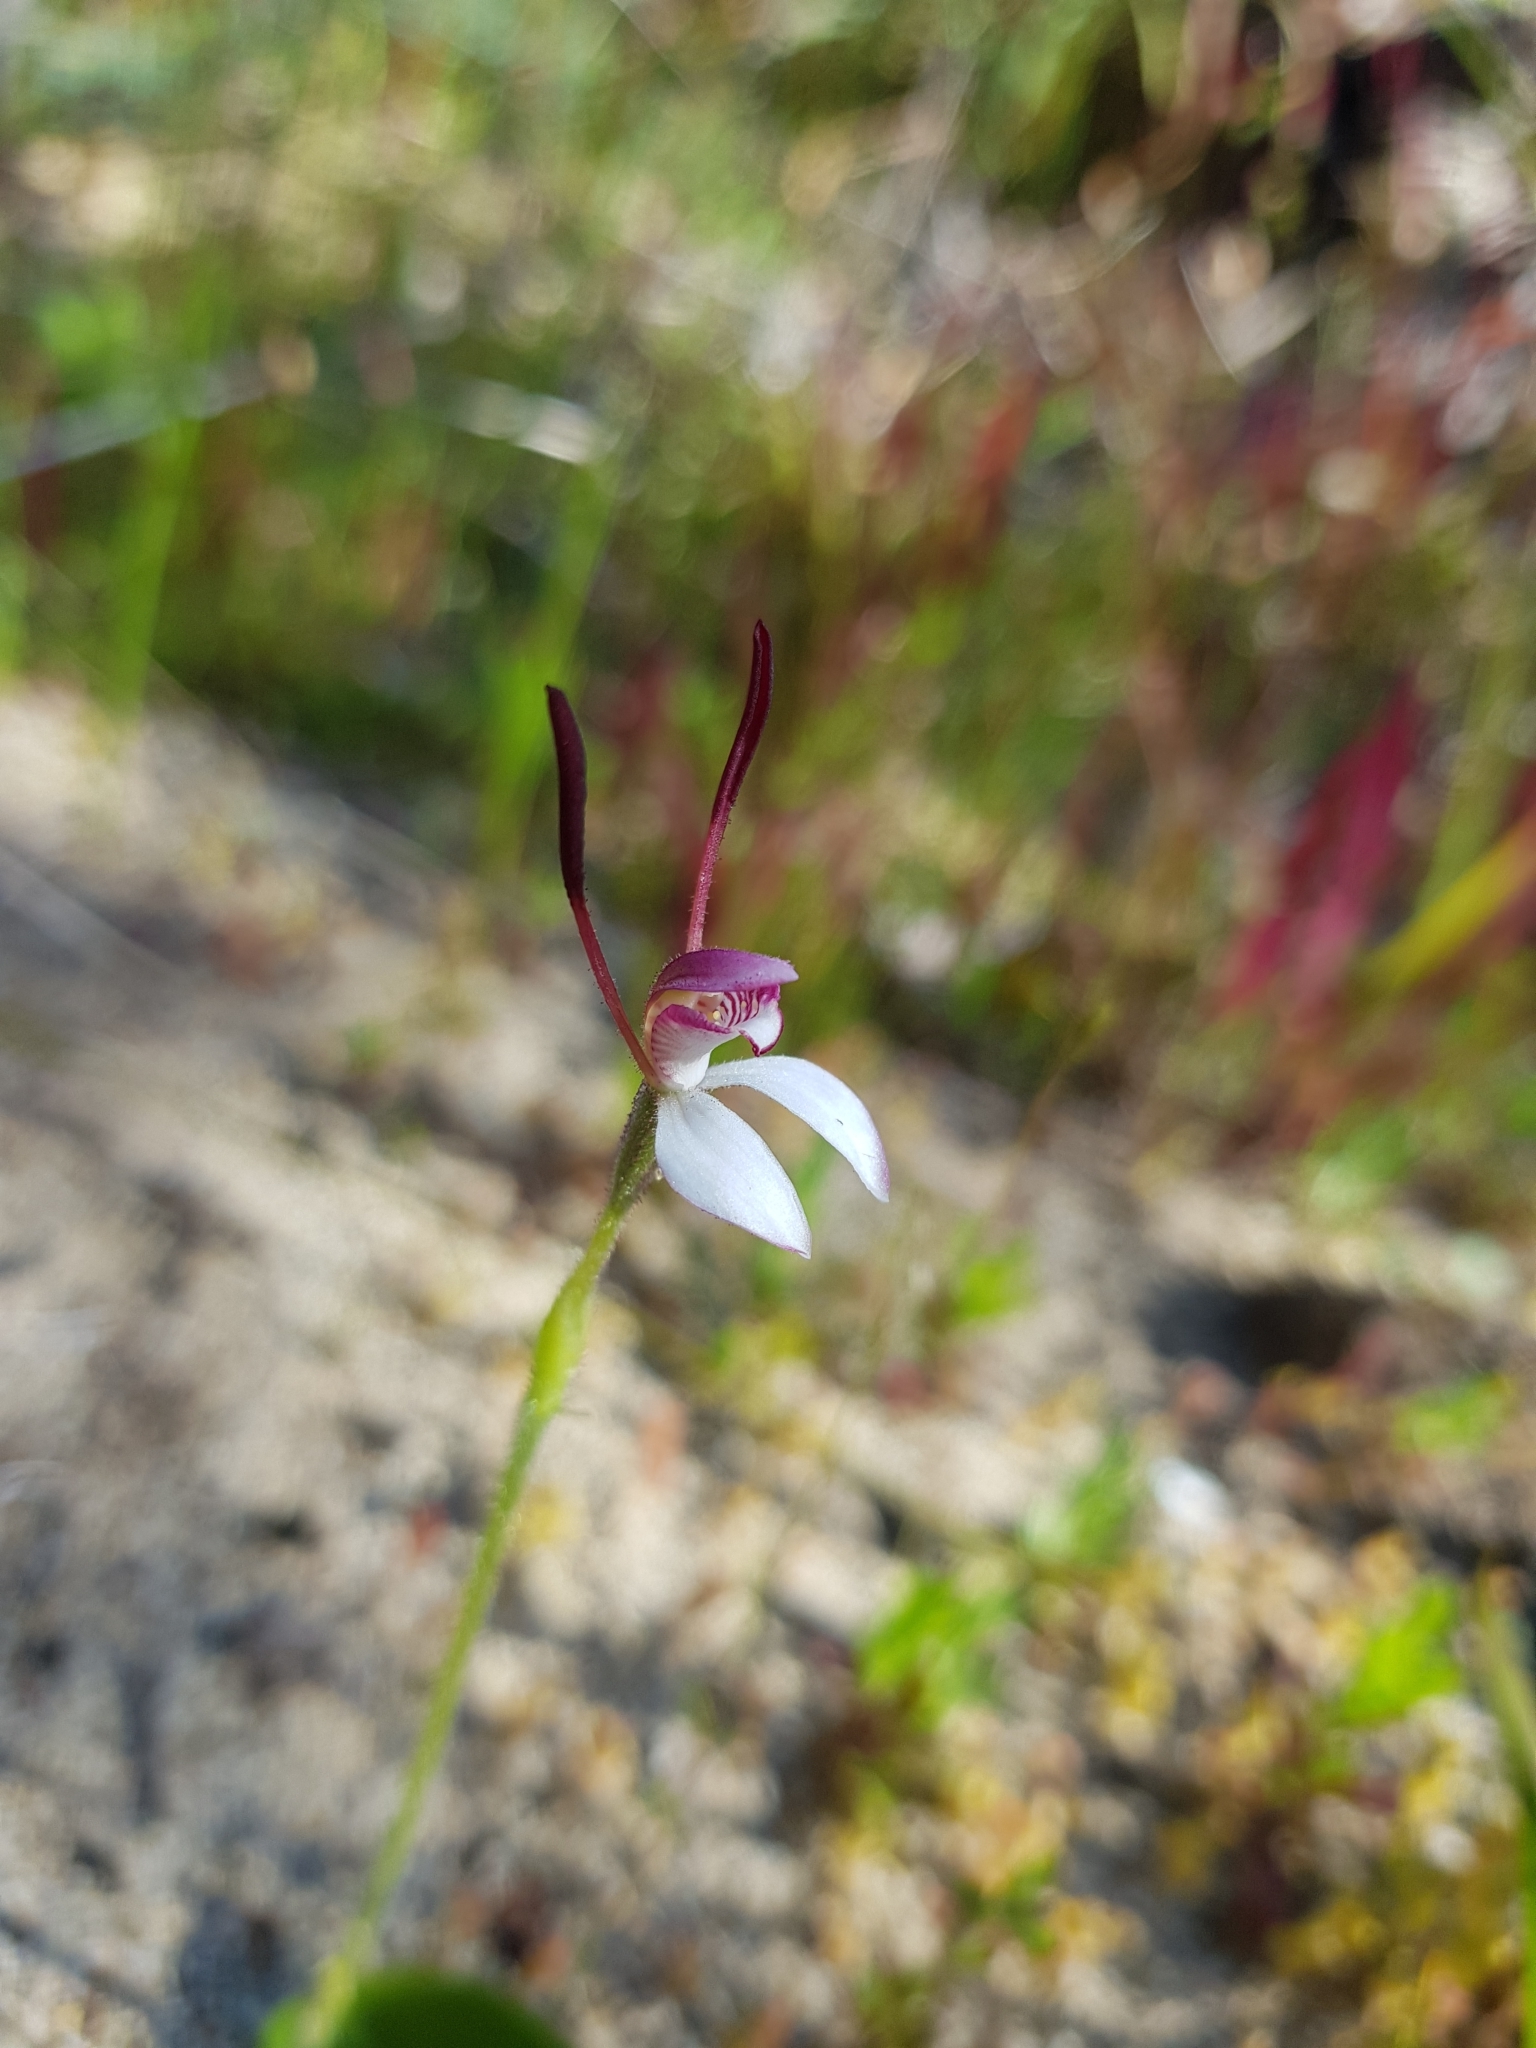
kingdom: Plantae
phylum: Tracheophyta
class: Liliopsida
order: Asparagales
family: Orchidaceae
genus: Leptoceras
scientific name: Leptoceras menziesii
